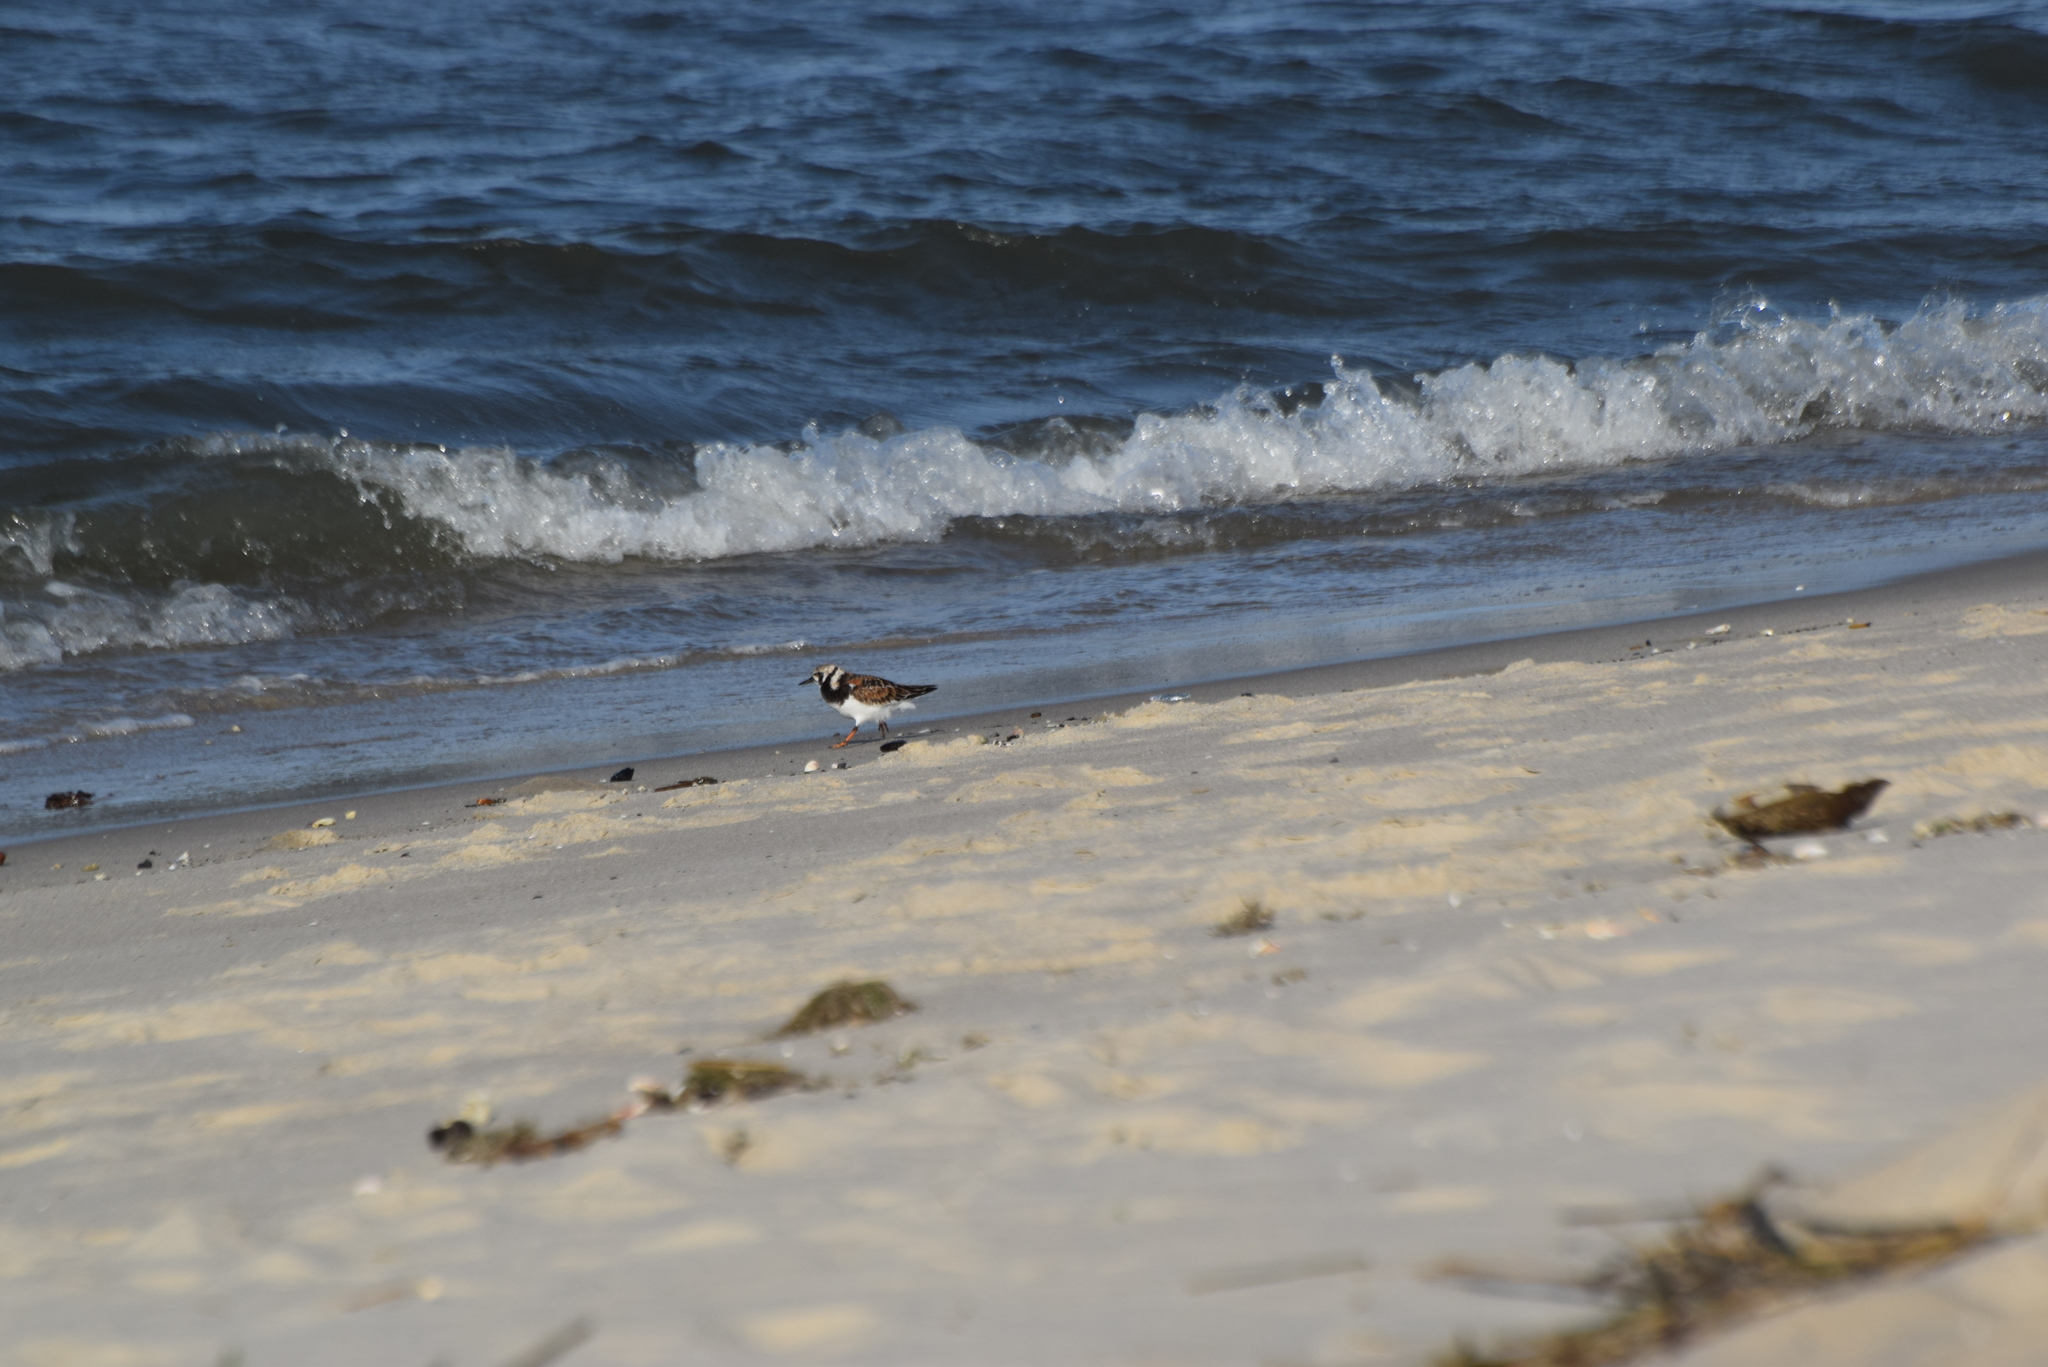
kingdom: Animalia
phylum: Chordata
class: Aves
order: Charadriiformes
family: Scolopacidae
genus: Arenaria
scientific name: Arenaria interpres
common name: Ruddy turnstone
